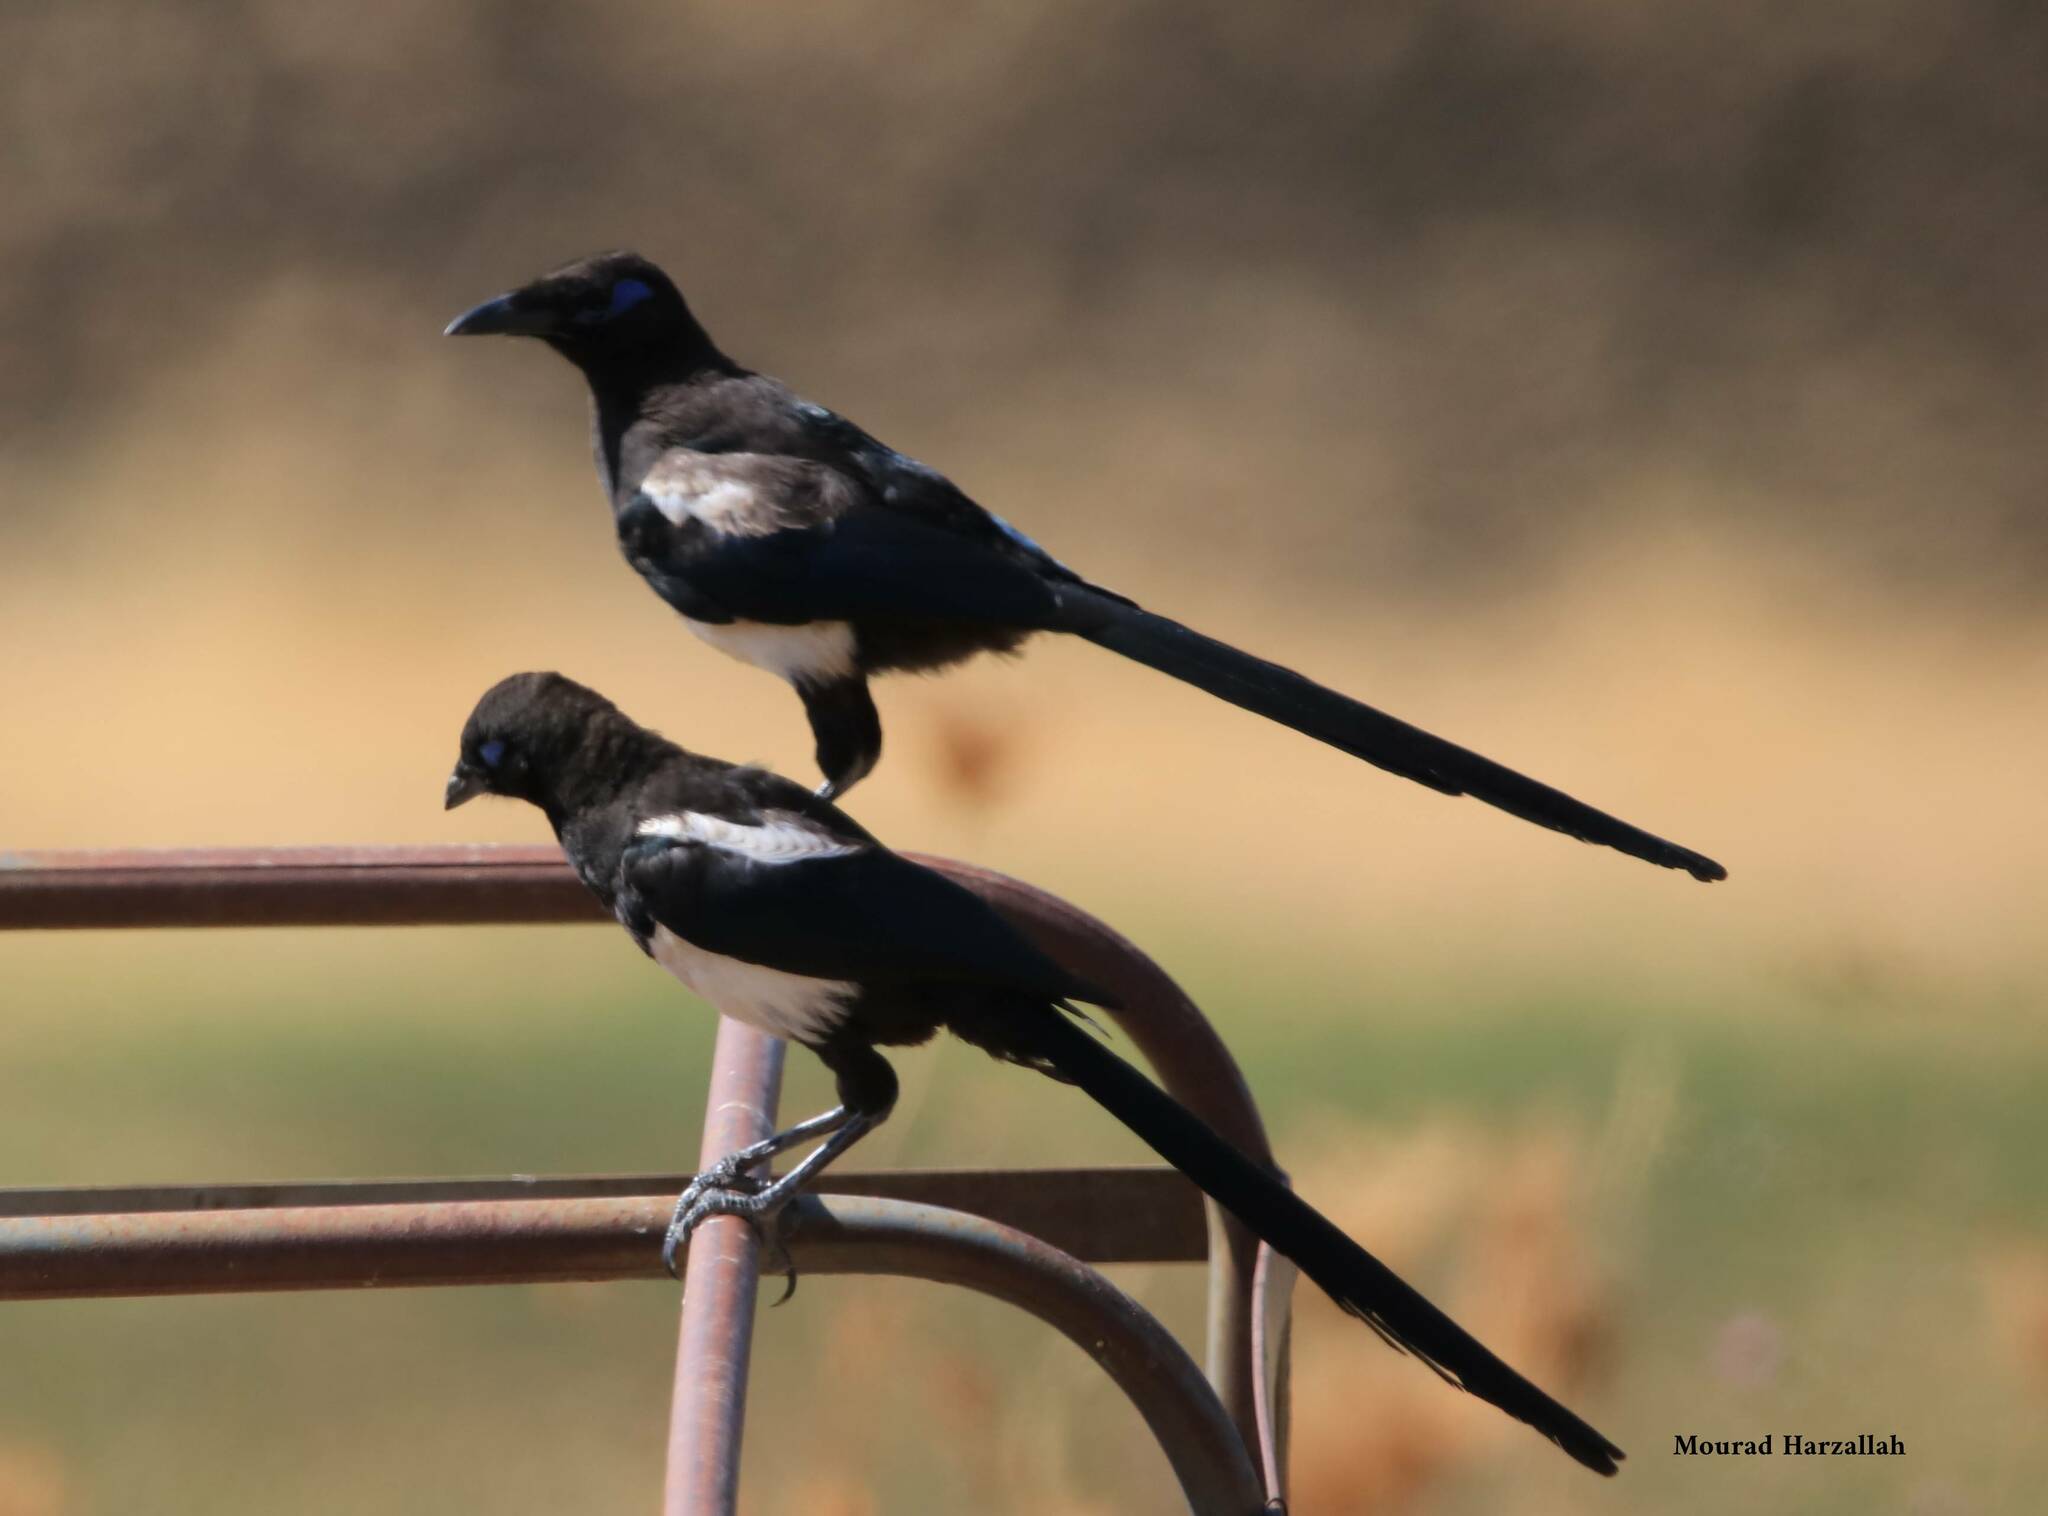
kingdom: Animalia
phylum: Chordata
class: Aves
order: Passeriformes
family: Corvidae
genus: Pica
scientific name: Pica mauritanica
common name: Maghreb magpie
